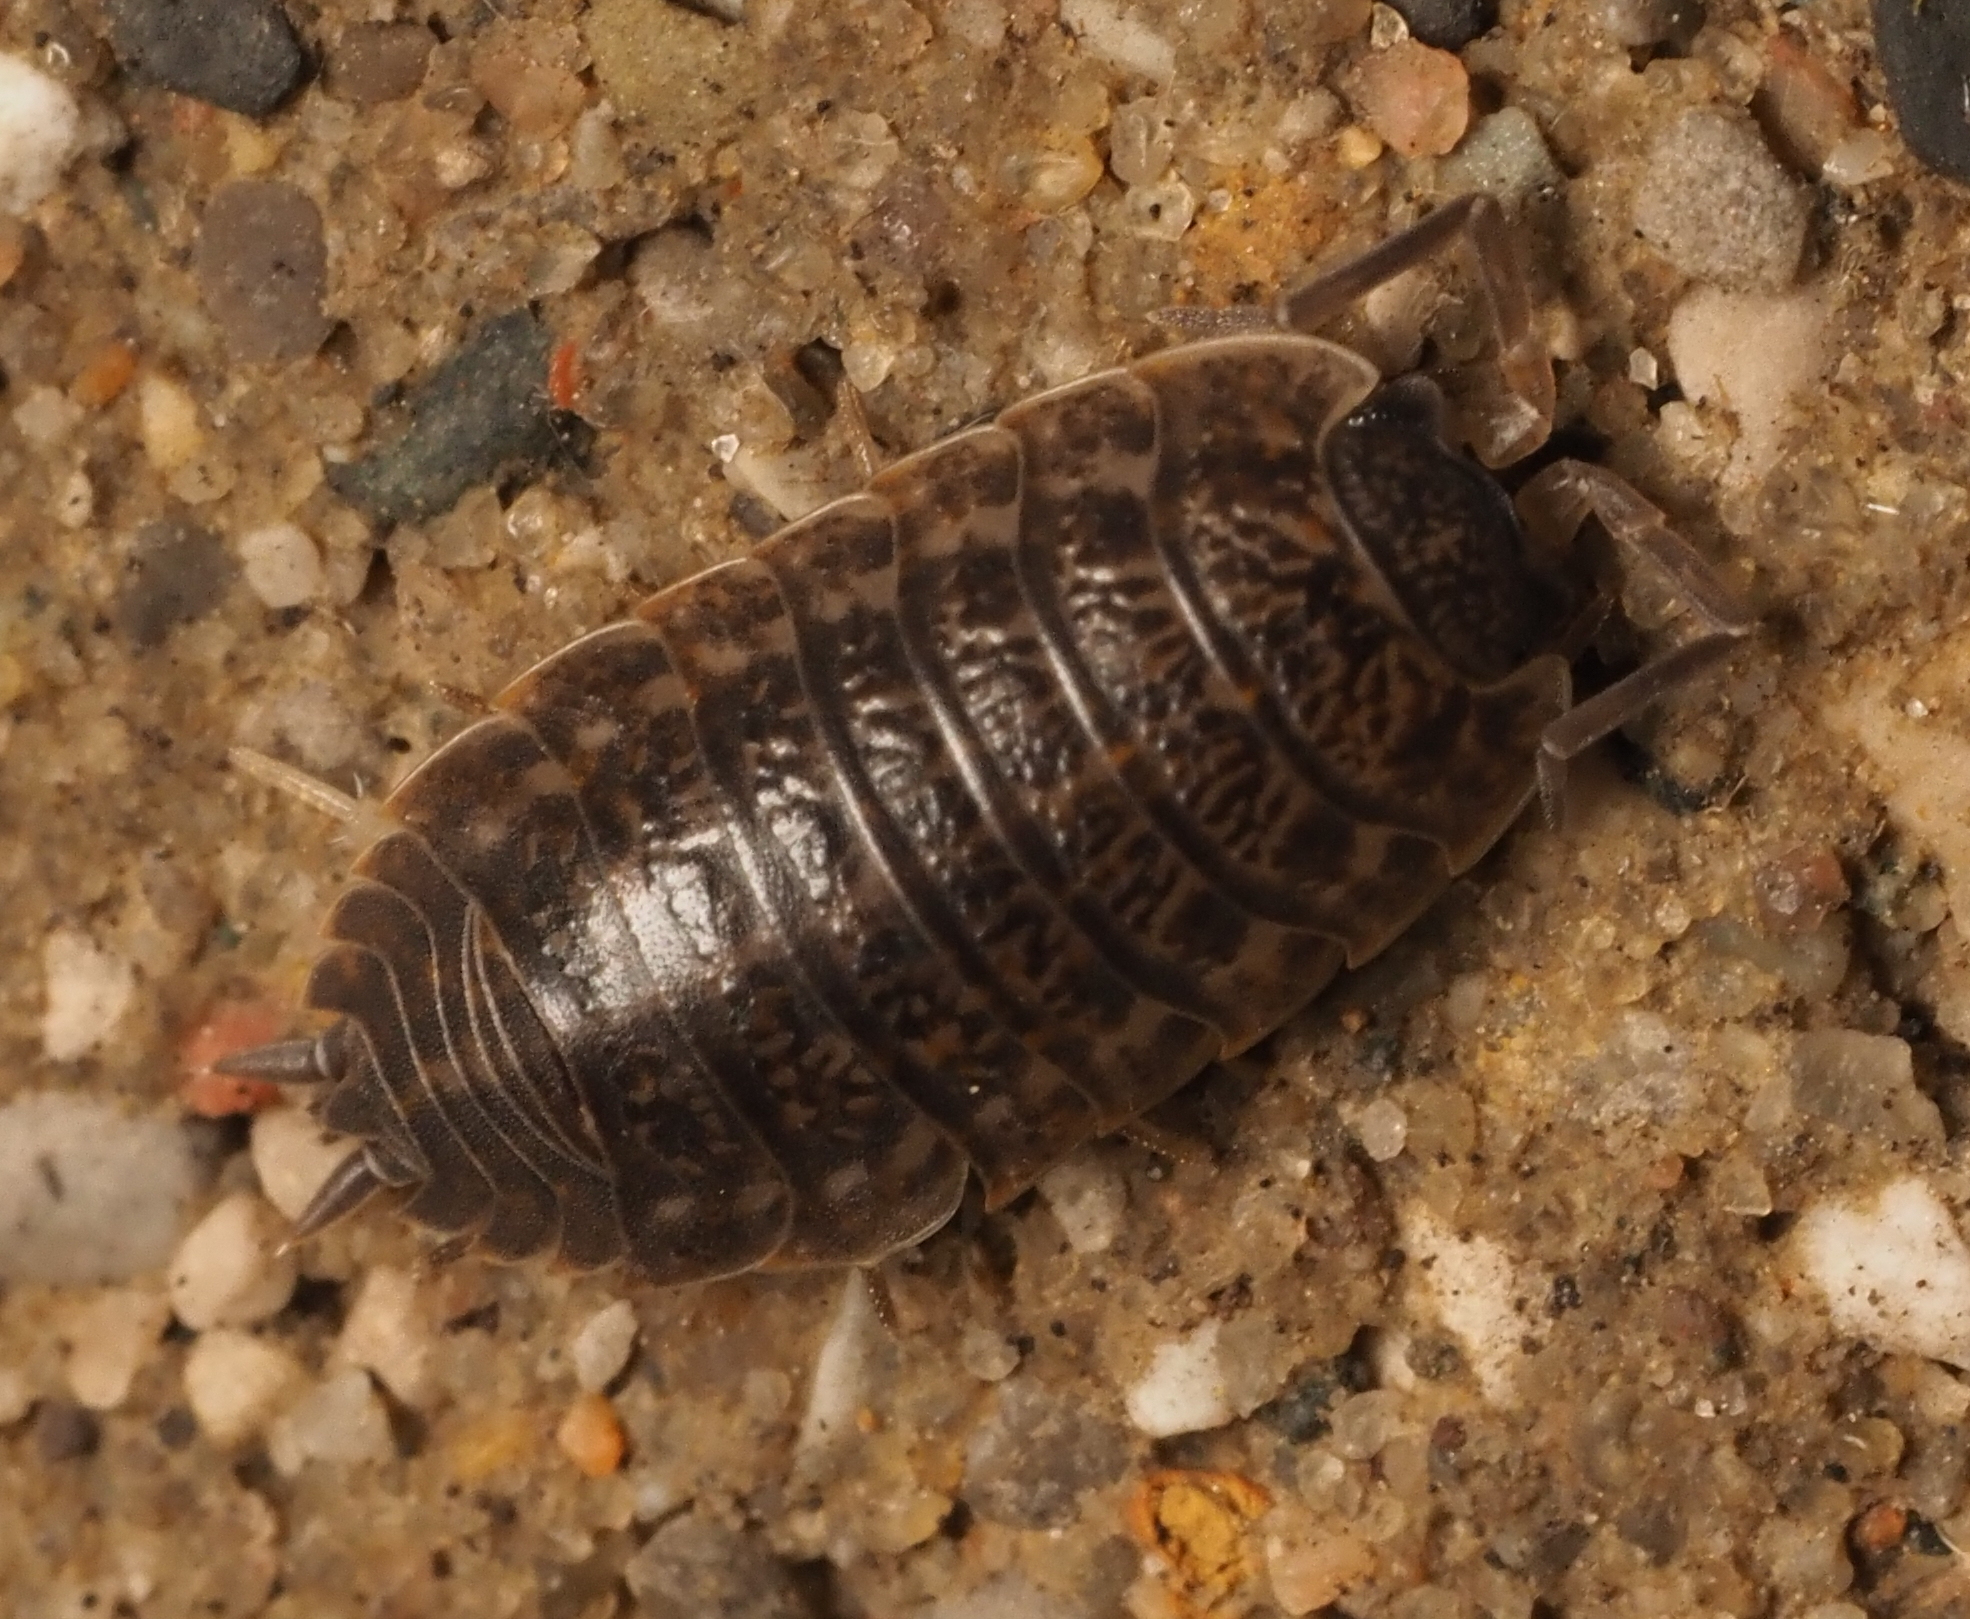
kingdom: Animalia
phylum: Arthropoda
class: Malacostraca
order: Isopoda
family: Trachelipodidae
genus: Trachelipus
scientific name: Trachelipus rathkii
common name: Isopod
